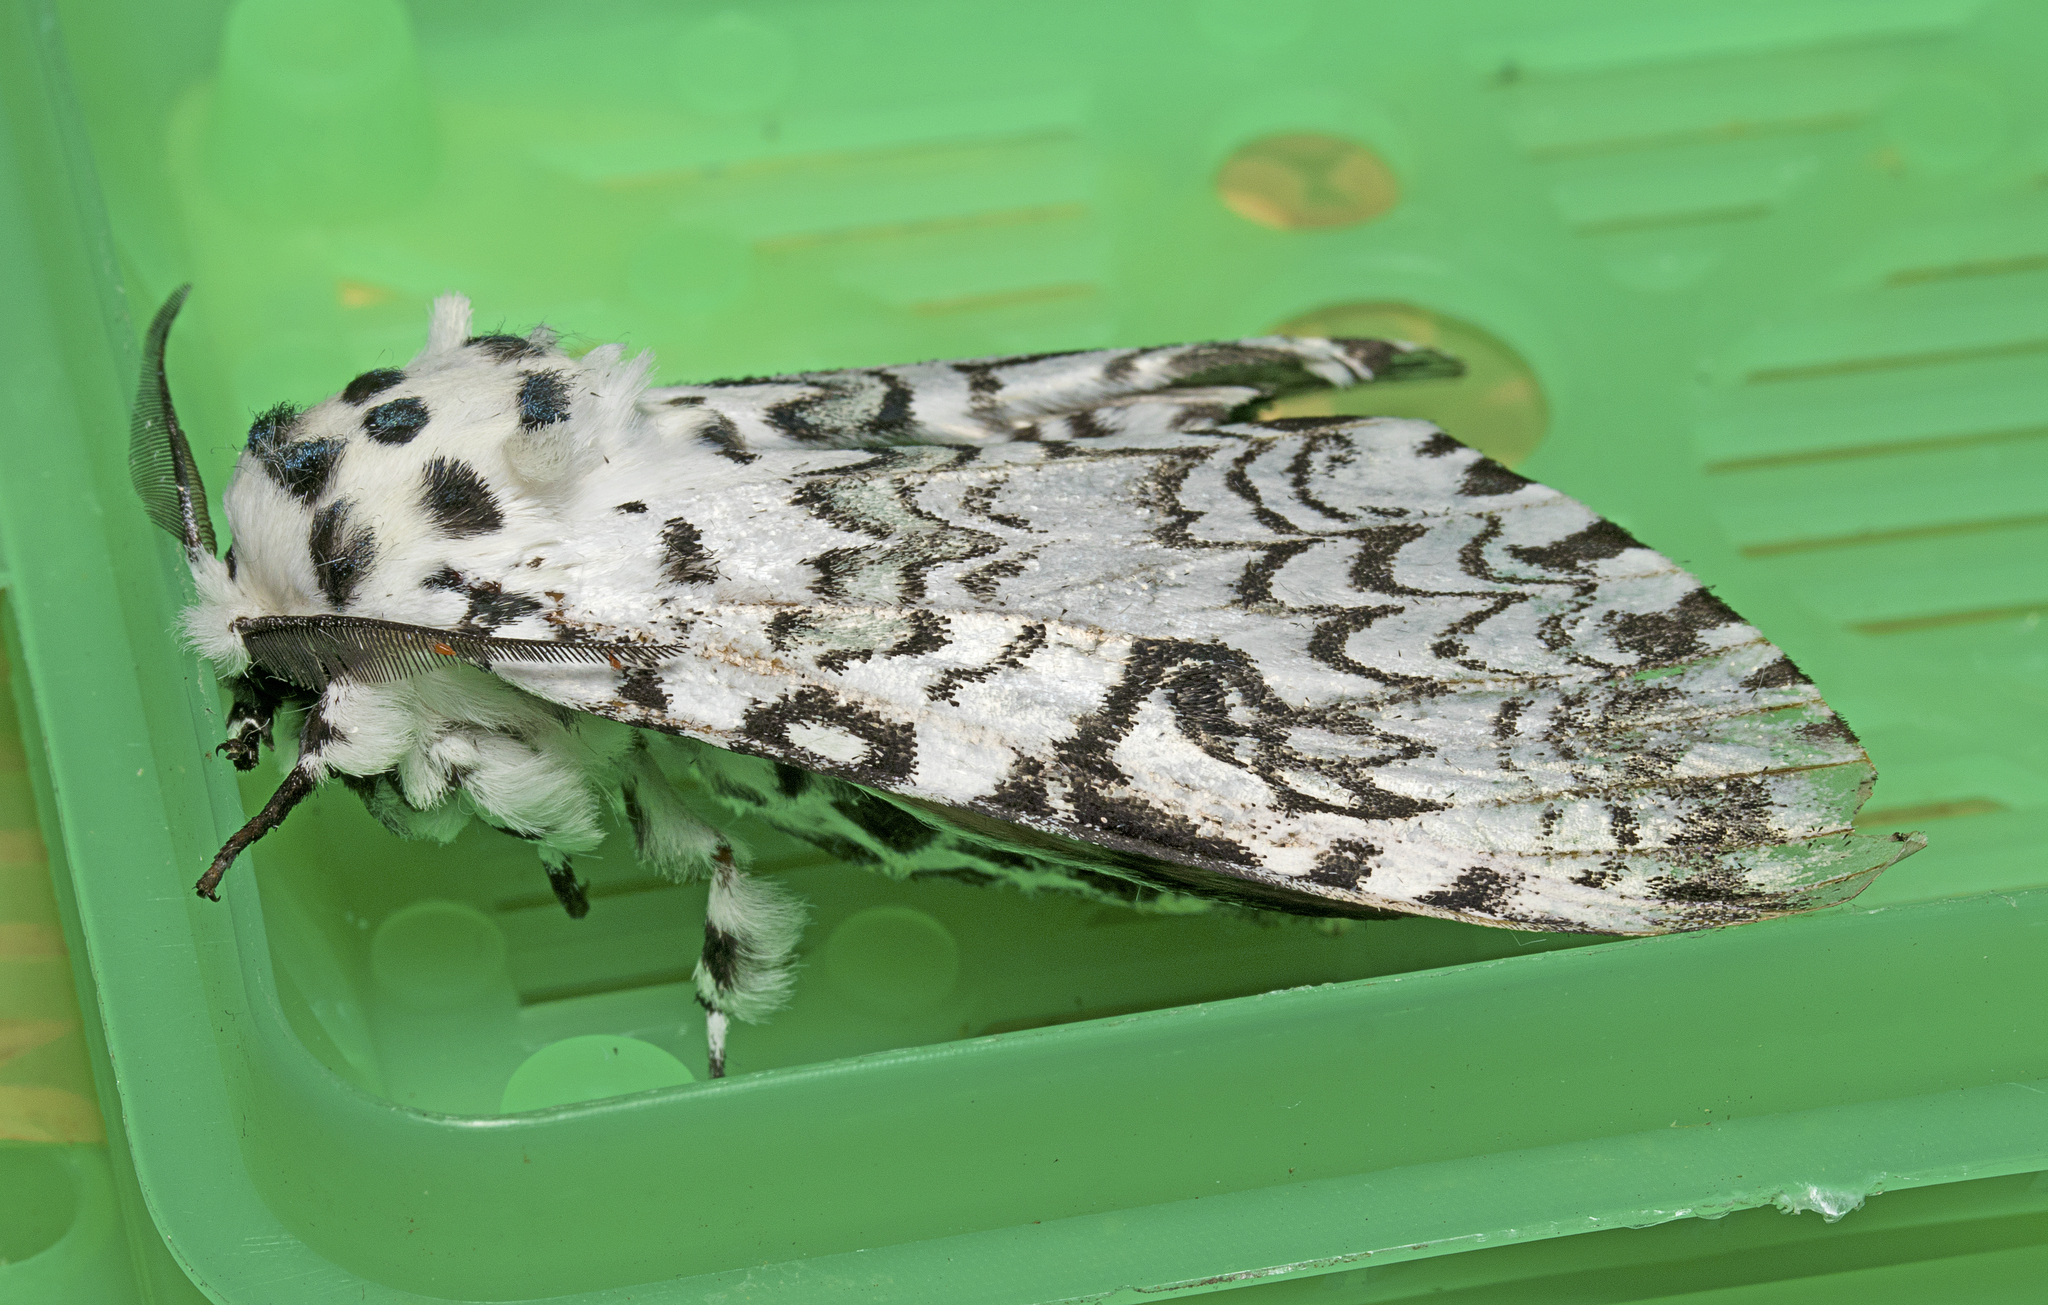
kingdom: Animalia
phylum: Arthropoda
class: Insecta
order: Lepidoptera
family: Notodontidae
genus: Kamalia
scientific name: Kamalia malaysiana
